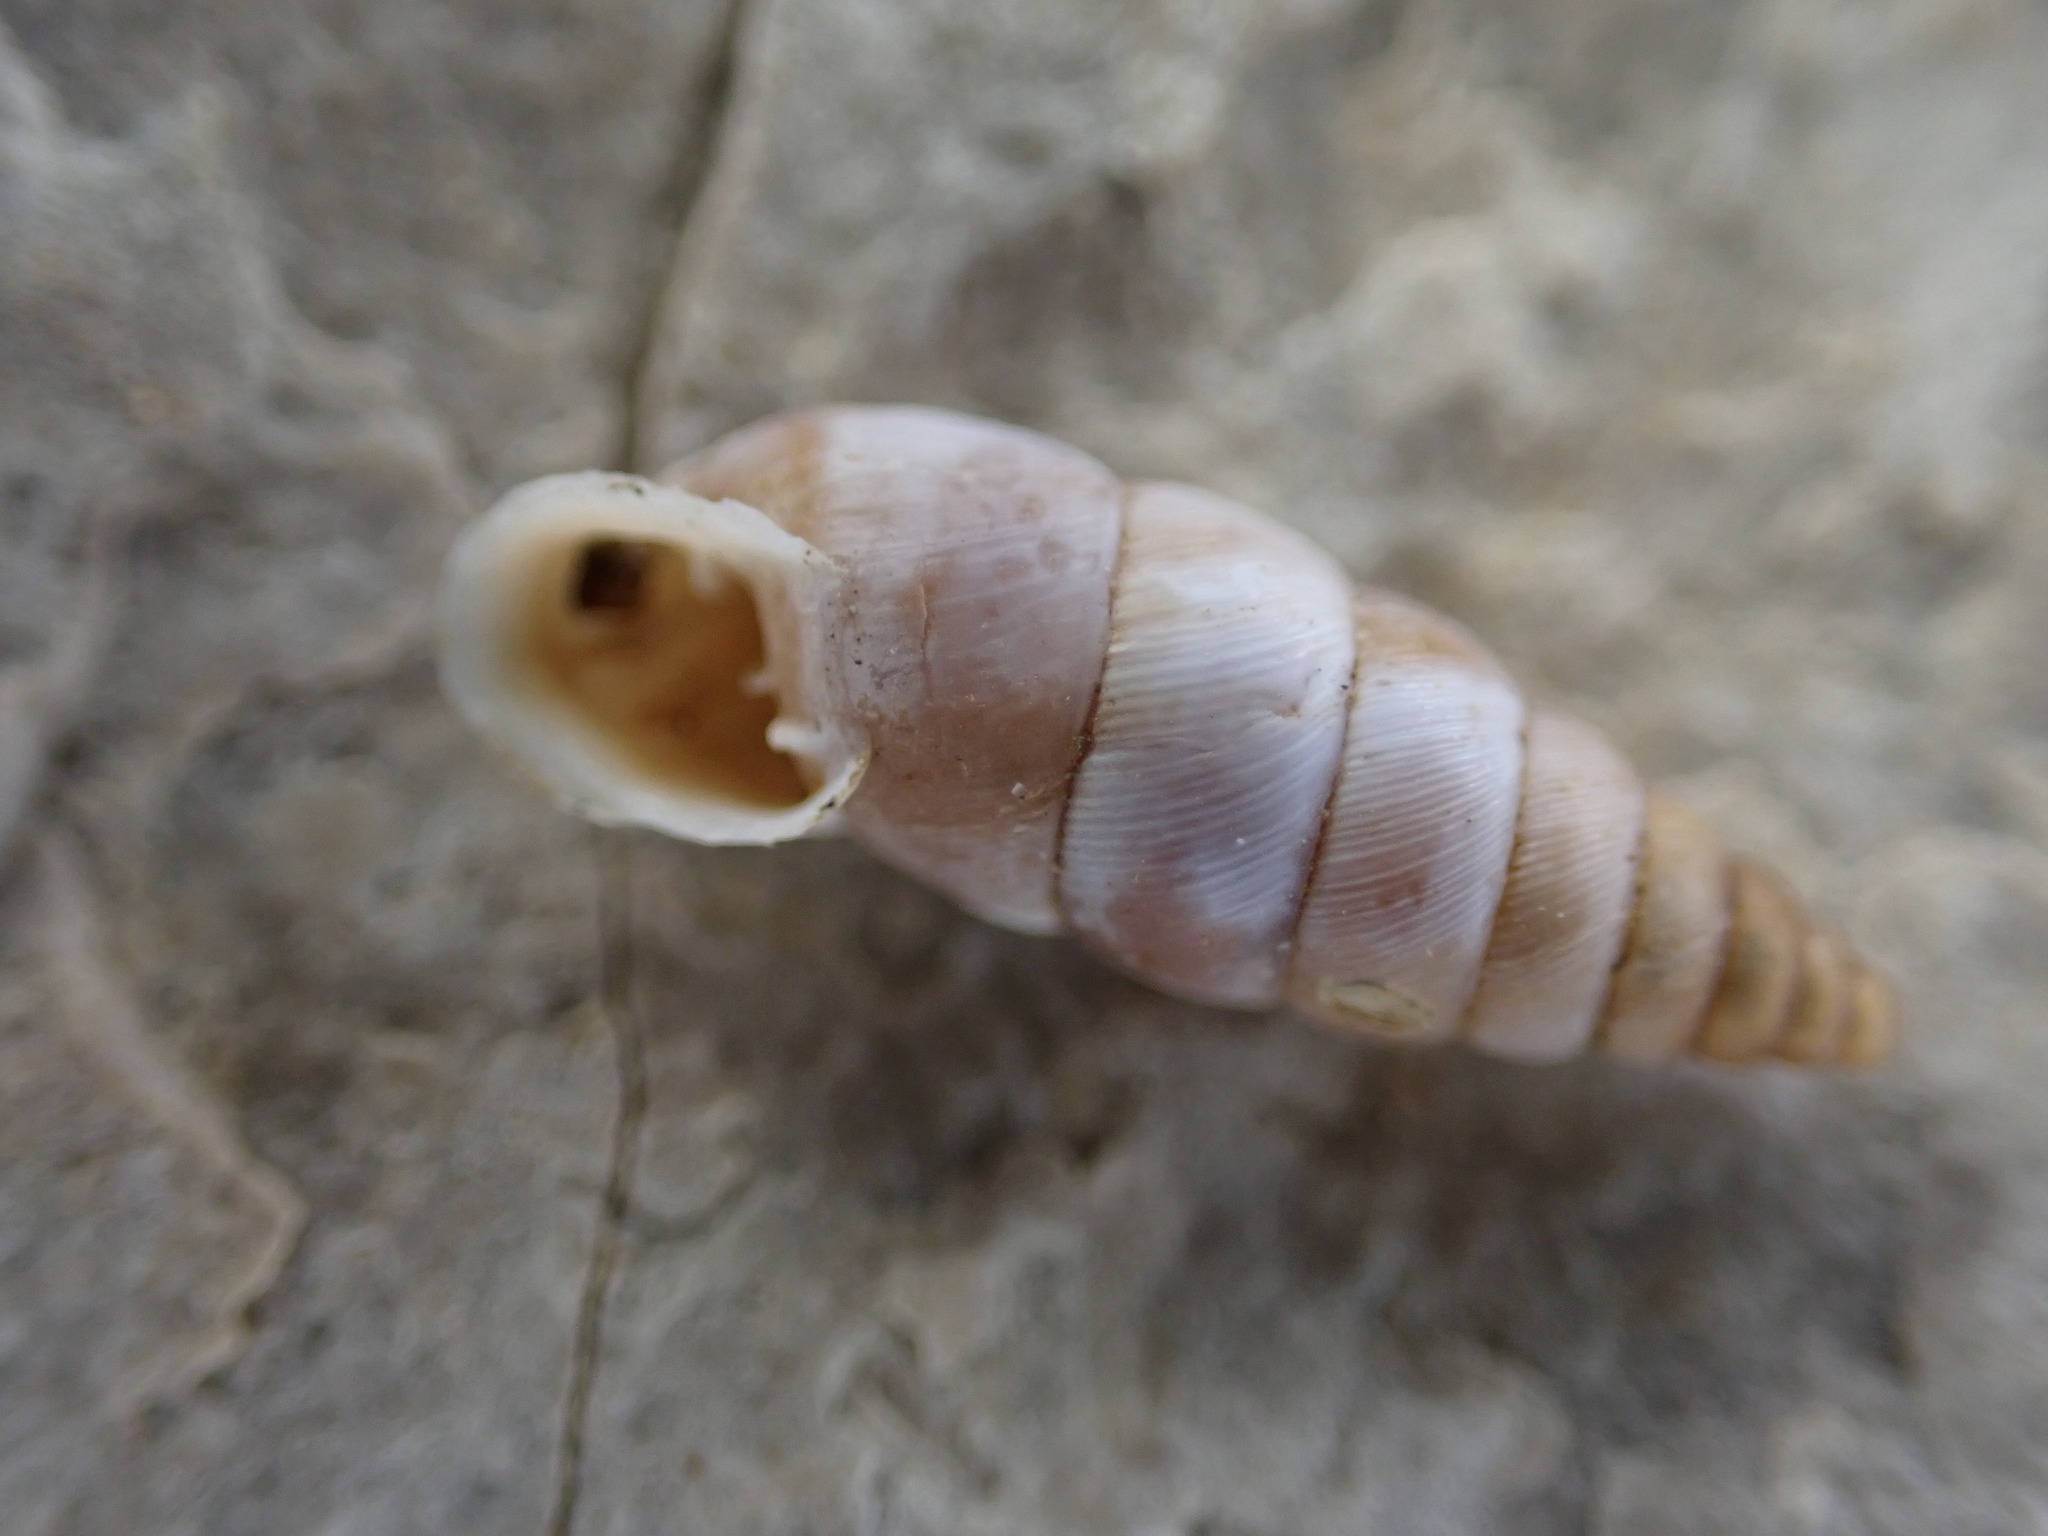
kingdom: Animalia
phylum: Mollusca
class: Gastropoda
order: Stylommatophora
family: Chondrinidae
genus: Solatopupa
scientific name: Solatopupa similis
